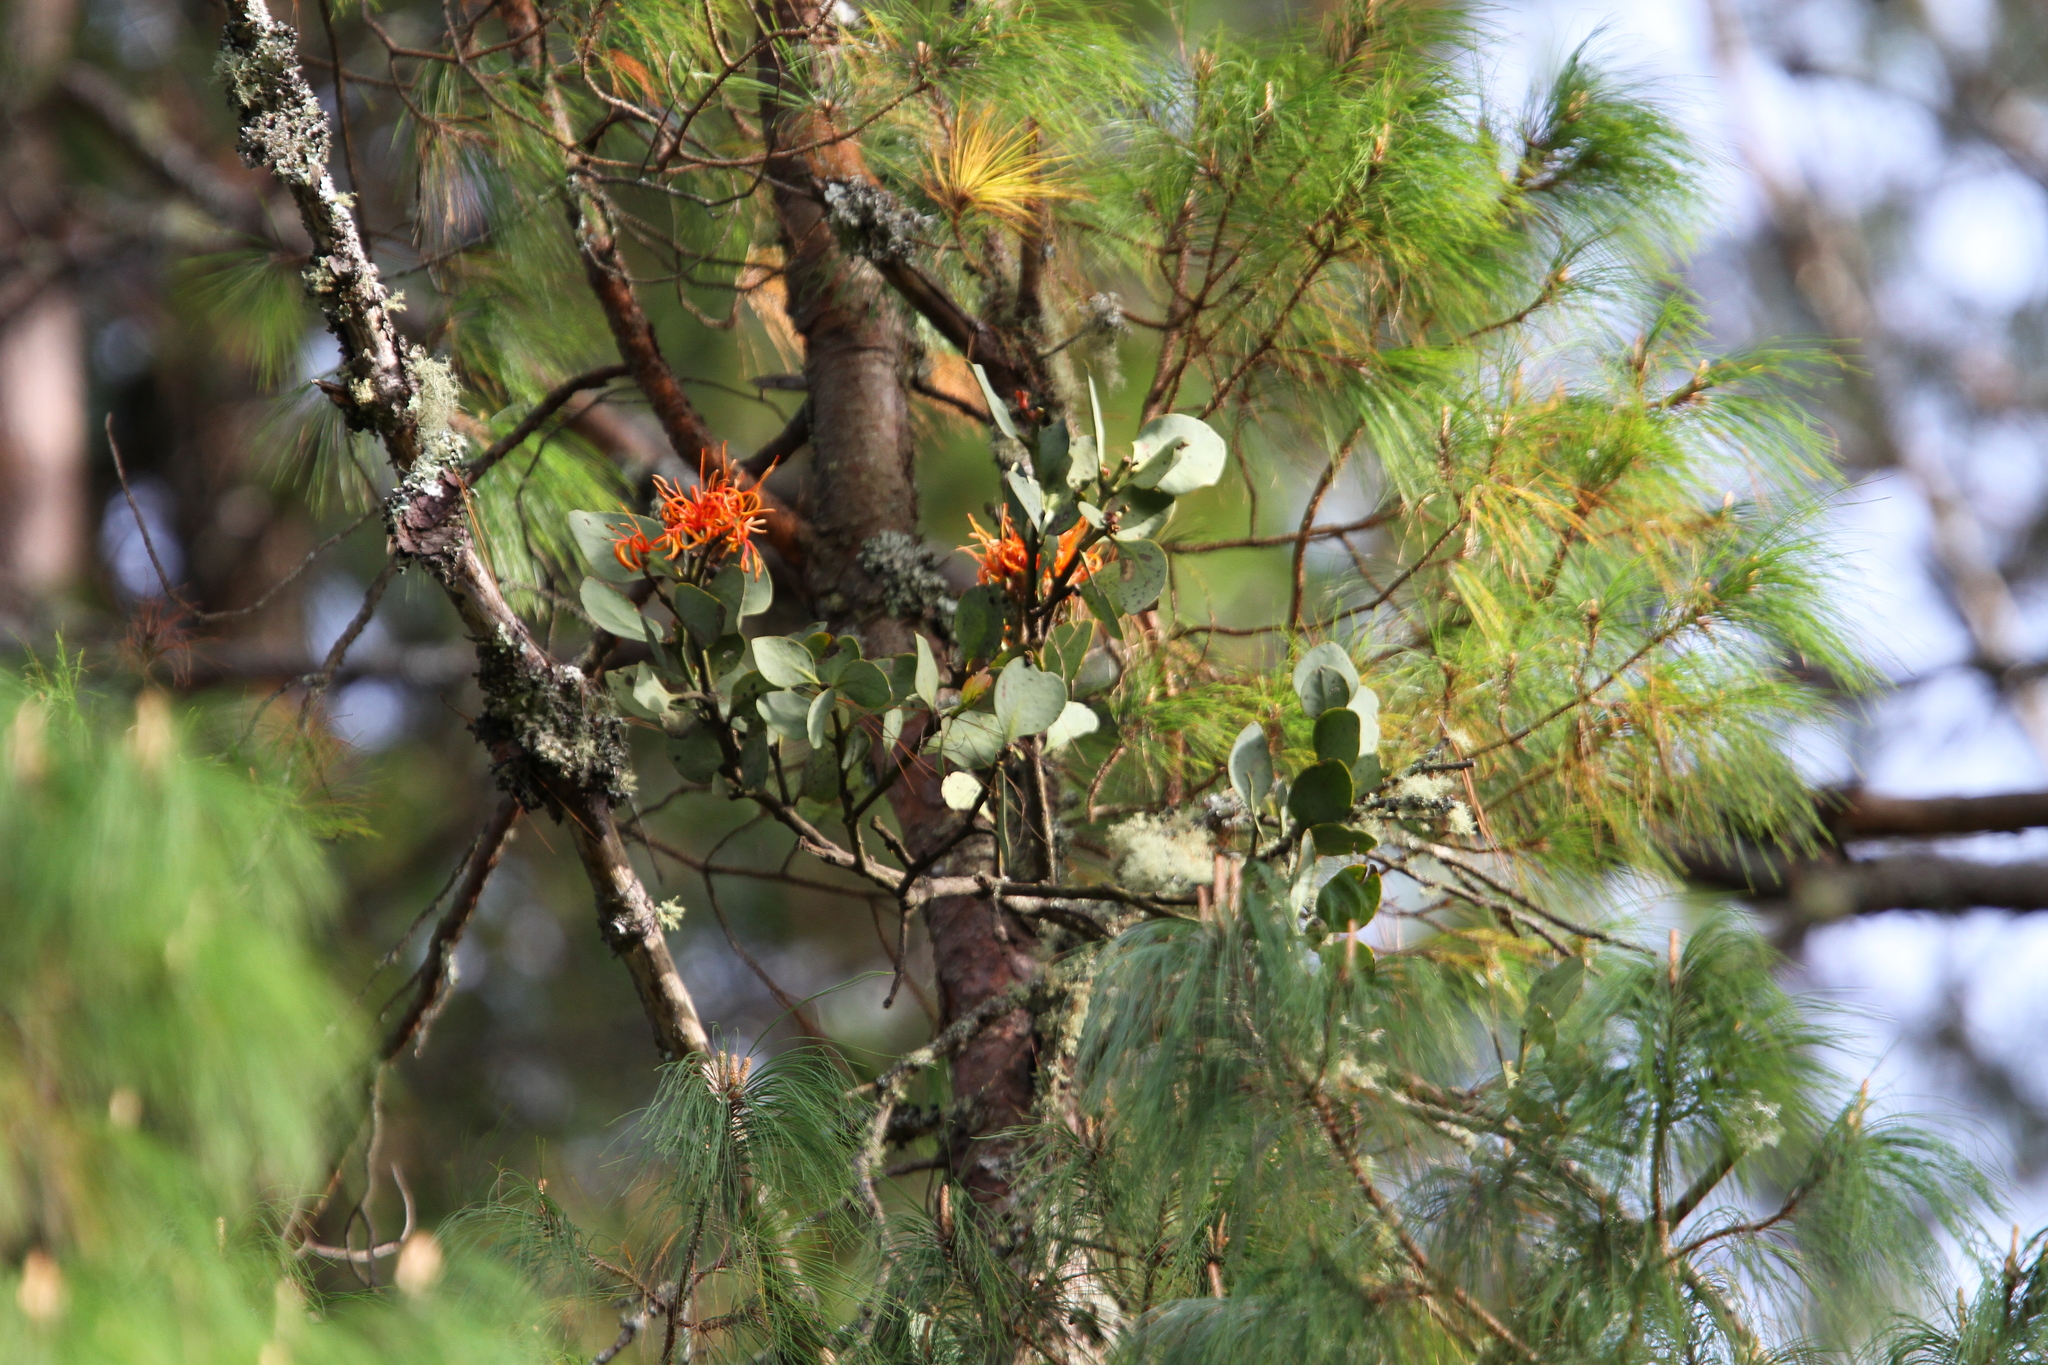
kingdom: Plantae
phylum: Tracheophyta
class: Magnoliopsida
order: Santalales
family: Loranthaceae
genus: Psittacanthus
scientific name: Psittacanthus calyculatus
